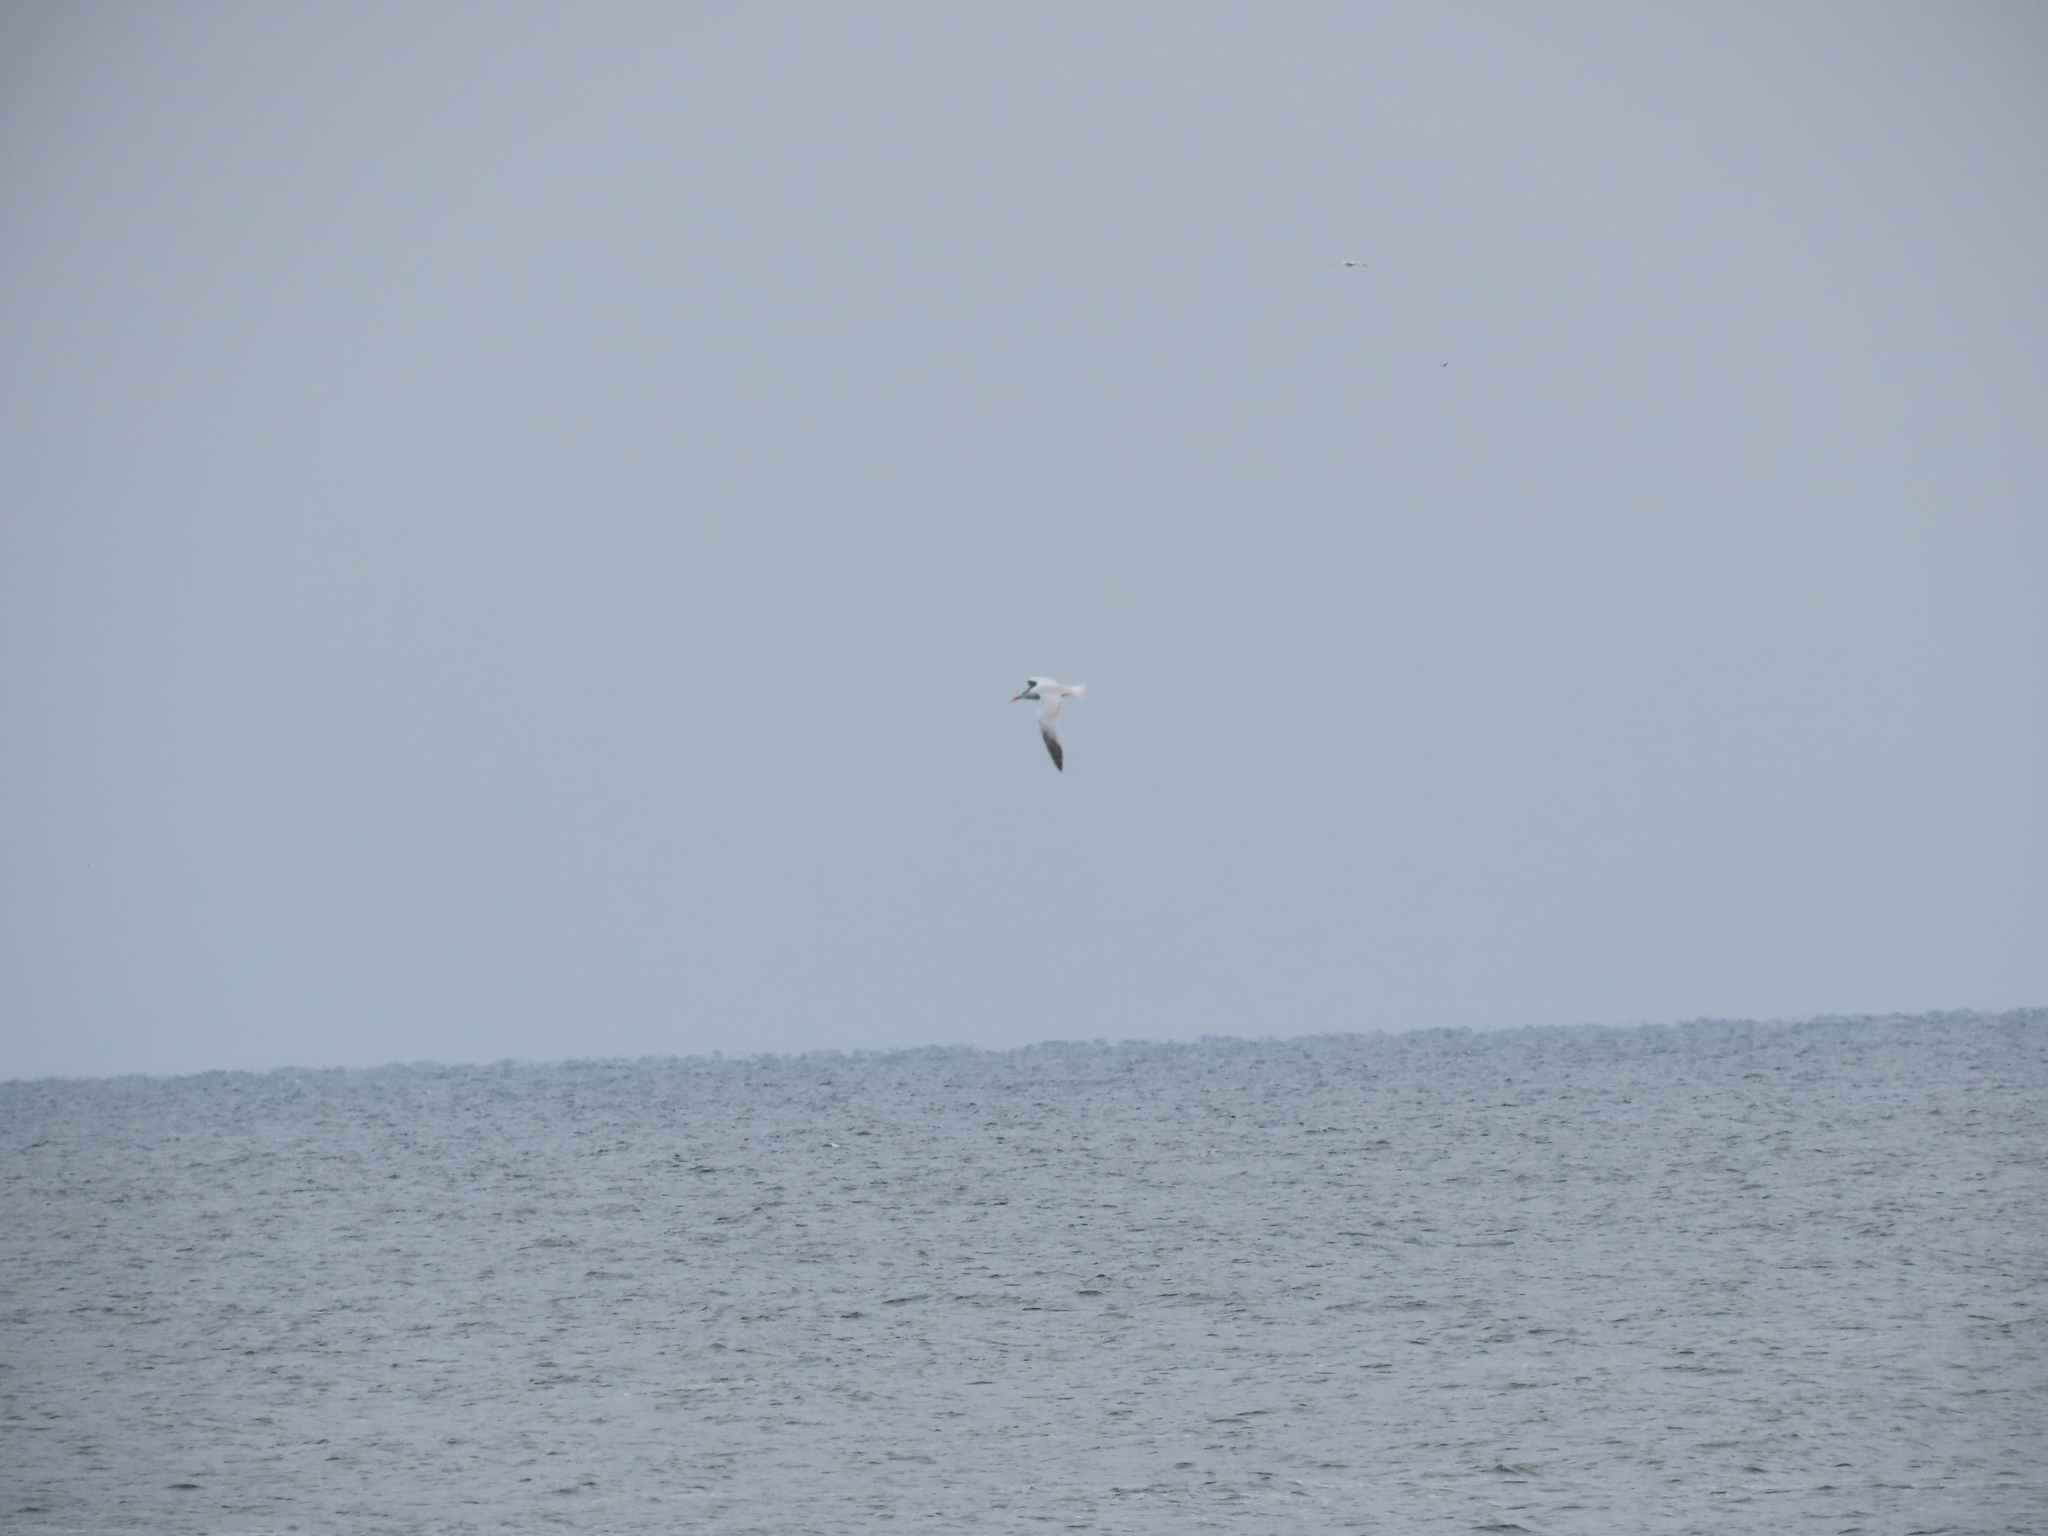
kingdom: Animalia
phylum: Chordata
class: Aves
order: Charadriiformes
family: Laridae
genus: Thalasseus
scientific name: Thalasseus maximus
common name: Royal tern
